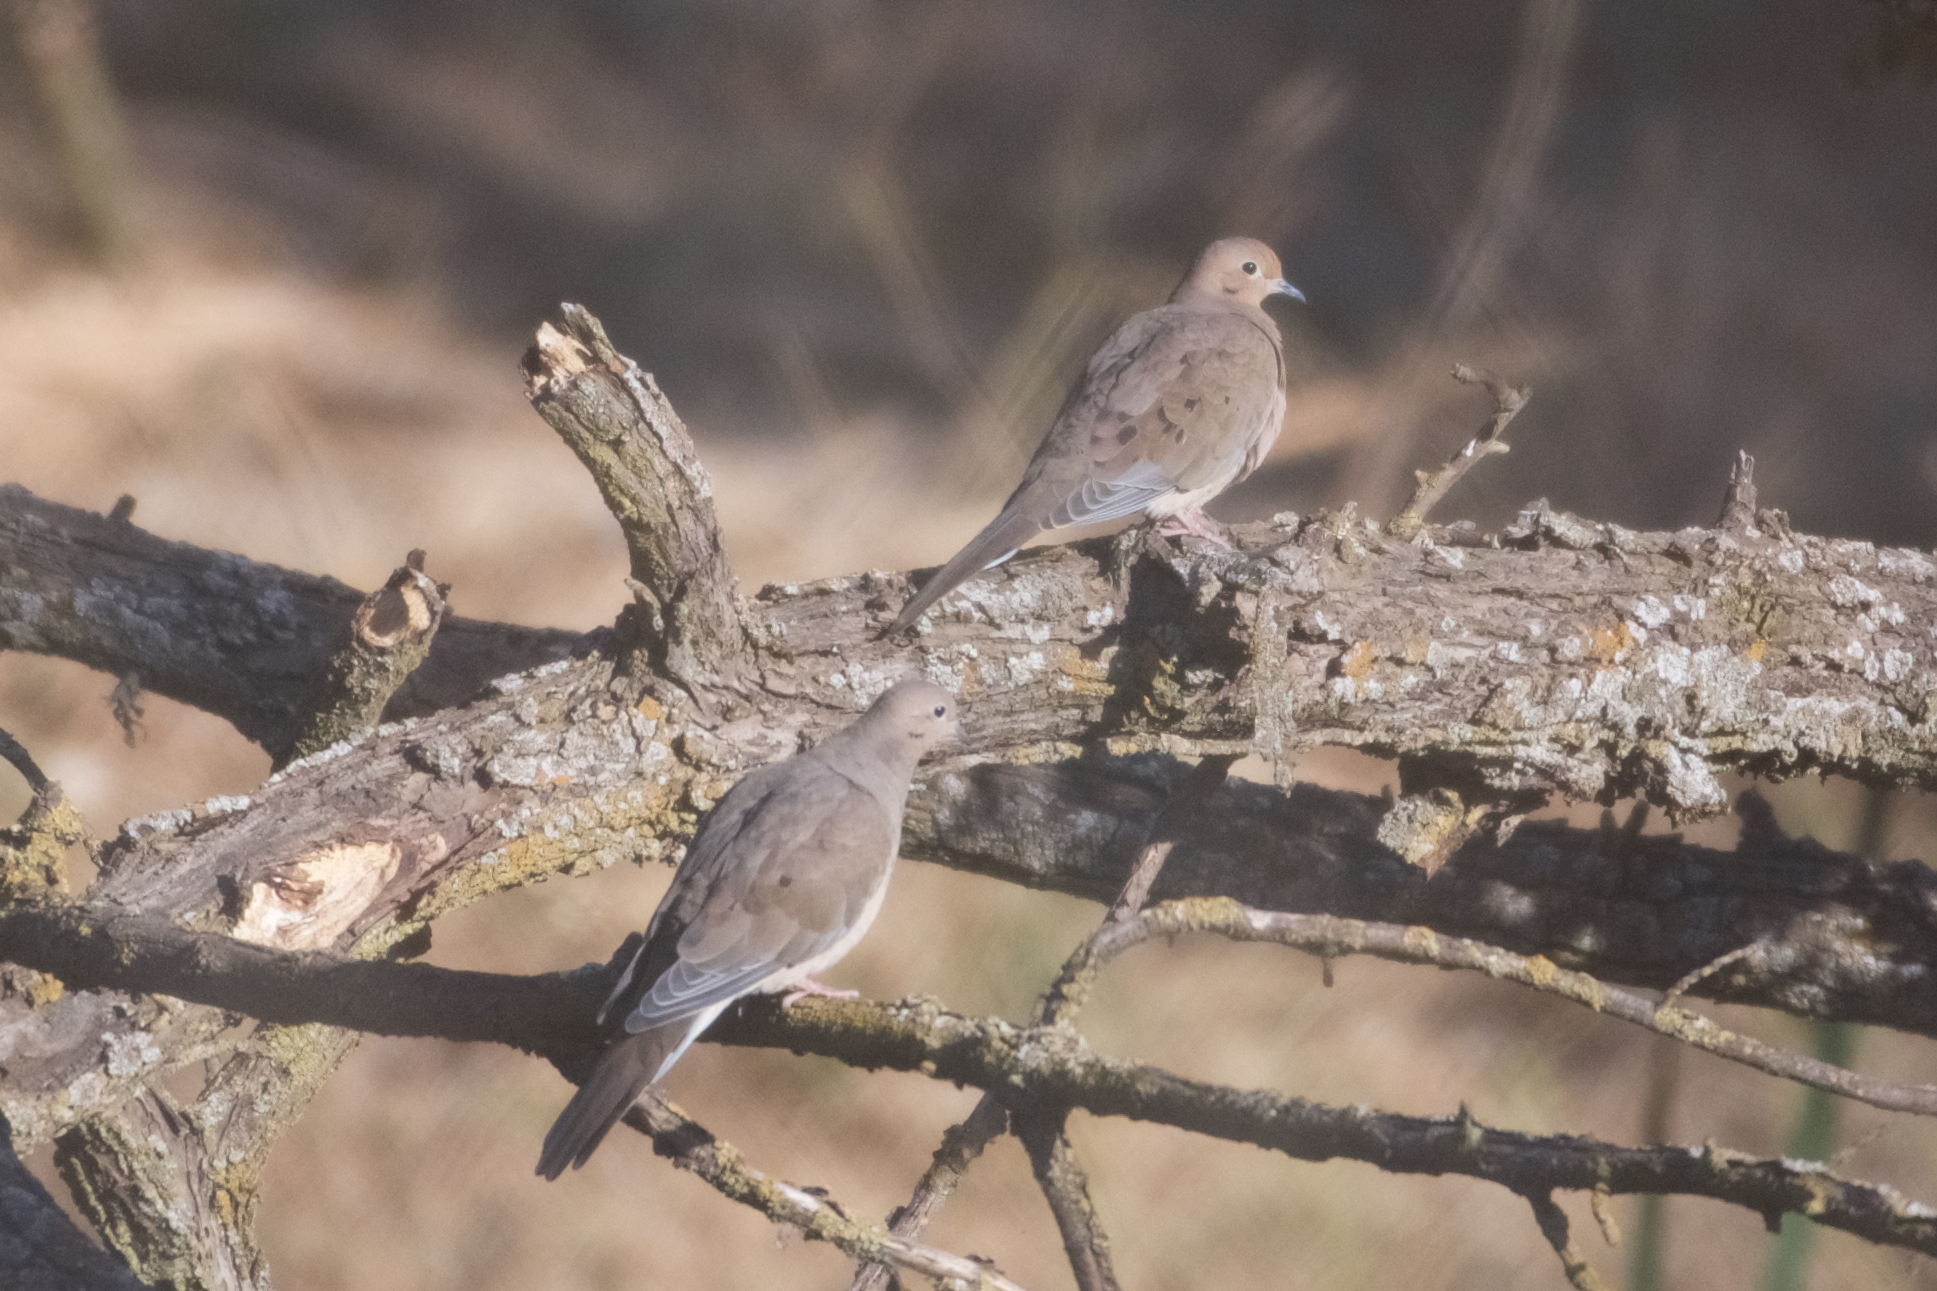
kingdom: Animalia
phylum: Chordata
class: Aves
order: Columbiformes
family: Columbidae
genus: Zenaida
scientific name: Zenaida macroura
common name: Mourning dove
